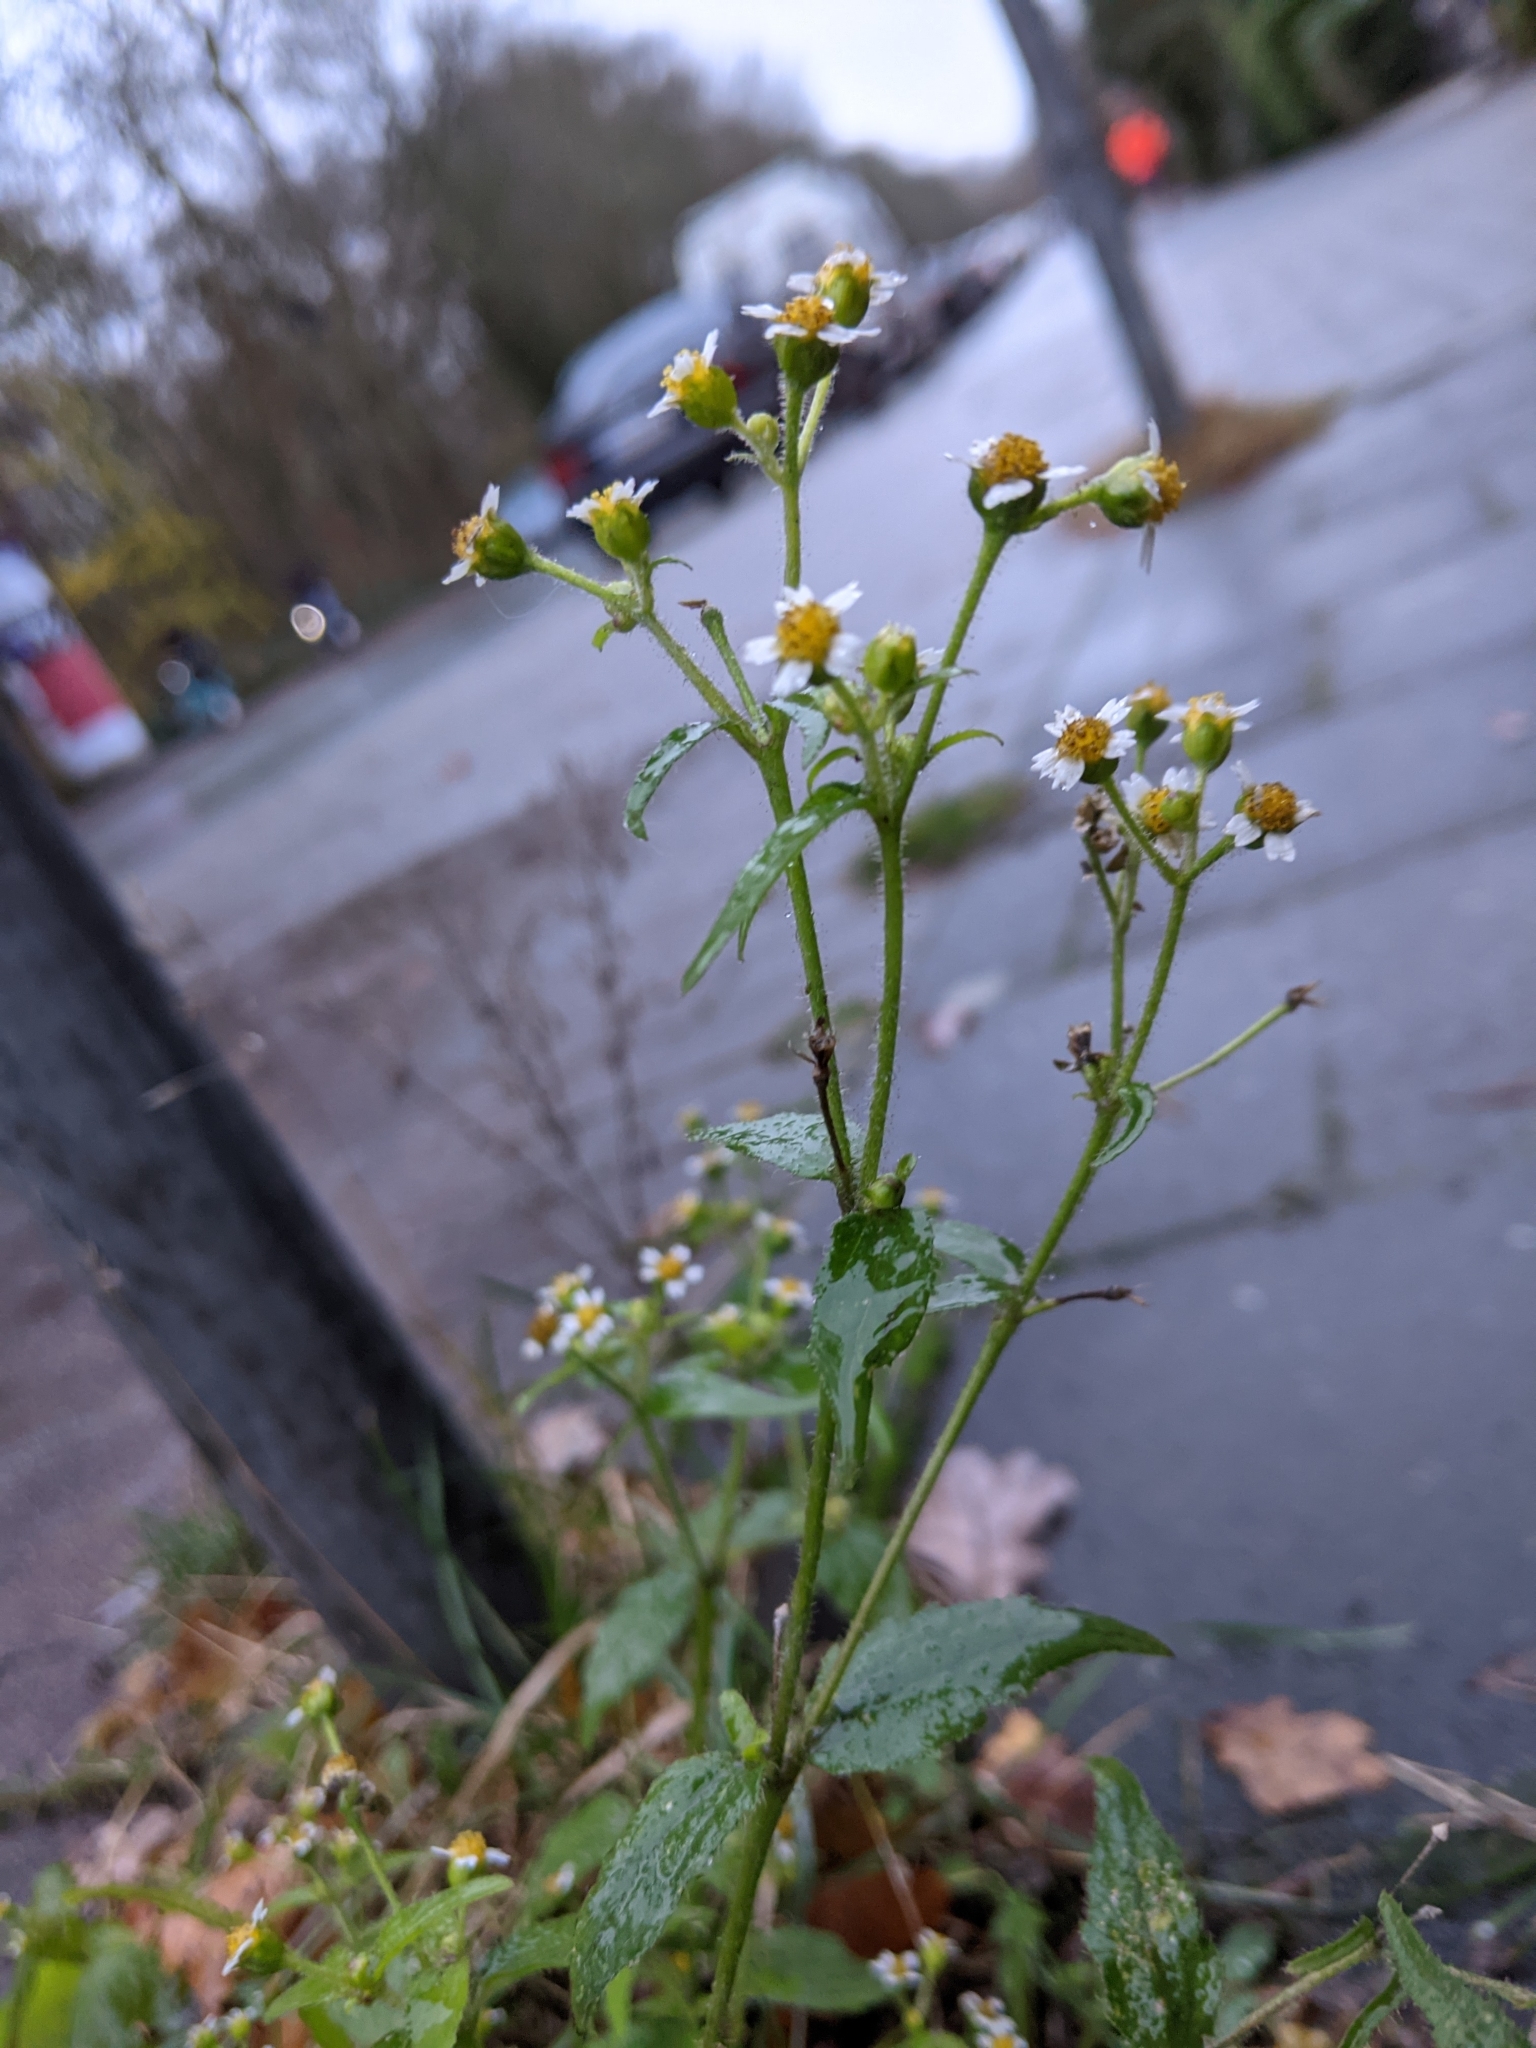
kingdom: Plantae
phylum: Tracheophyta
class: Magnoliopsida
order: Asterales
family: Asteraceae
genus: Galinsoga
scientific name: Galinsoga quadriradiata
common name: Shaggy soldier
